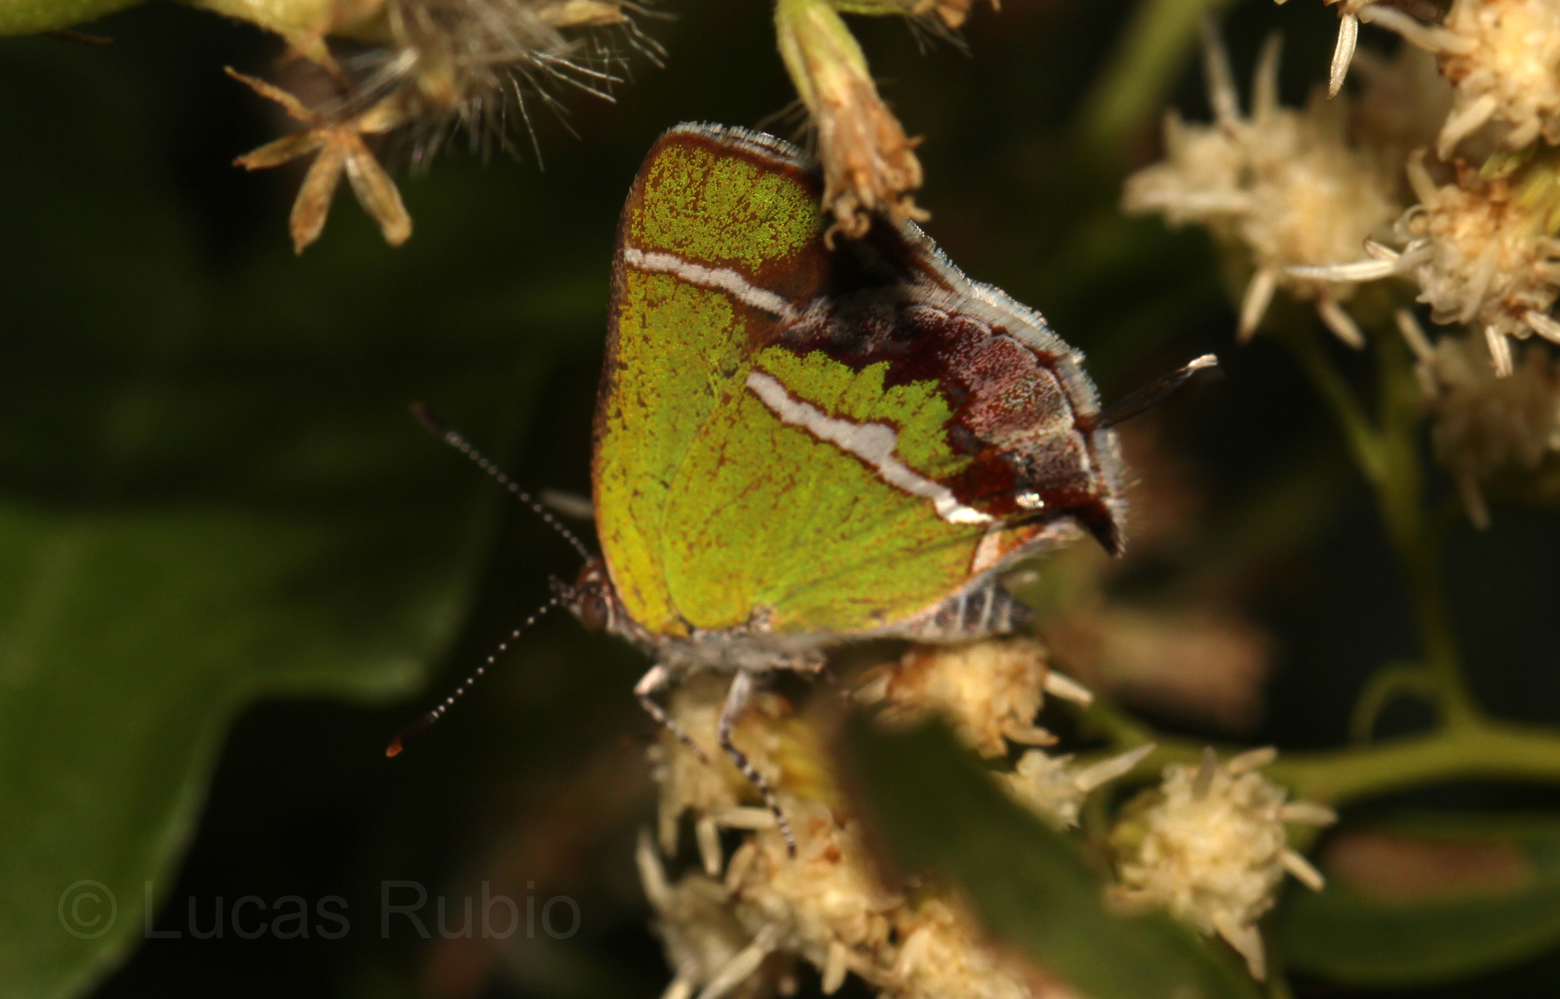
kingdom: Animalia
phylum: Arthropoda
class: Insecta
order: Lepidoptera
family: Lycaenidae
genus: Chlorostrymon
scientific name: Chlorostrymon simaethis
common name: Silver-banded hairstreak
